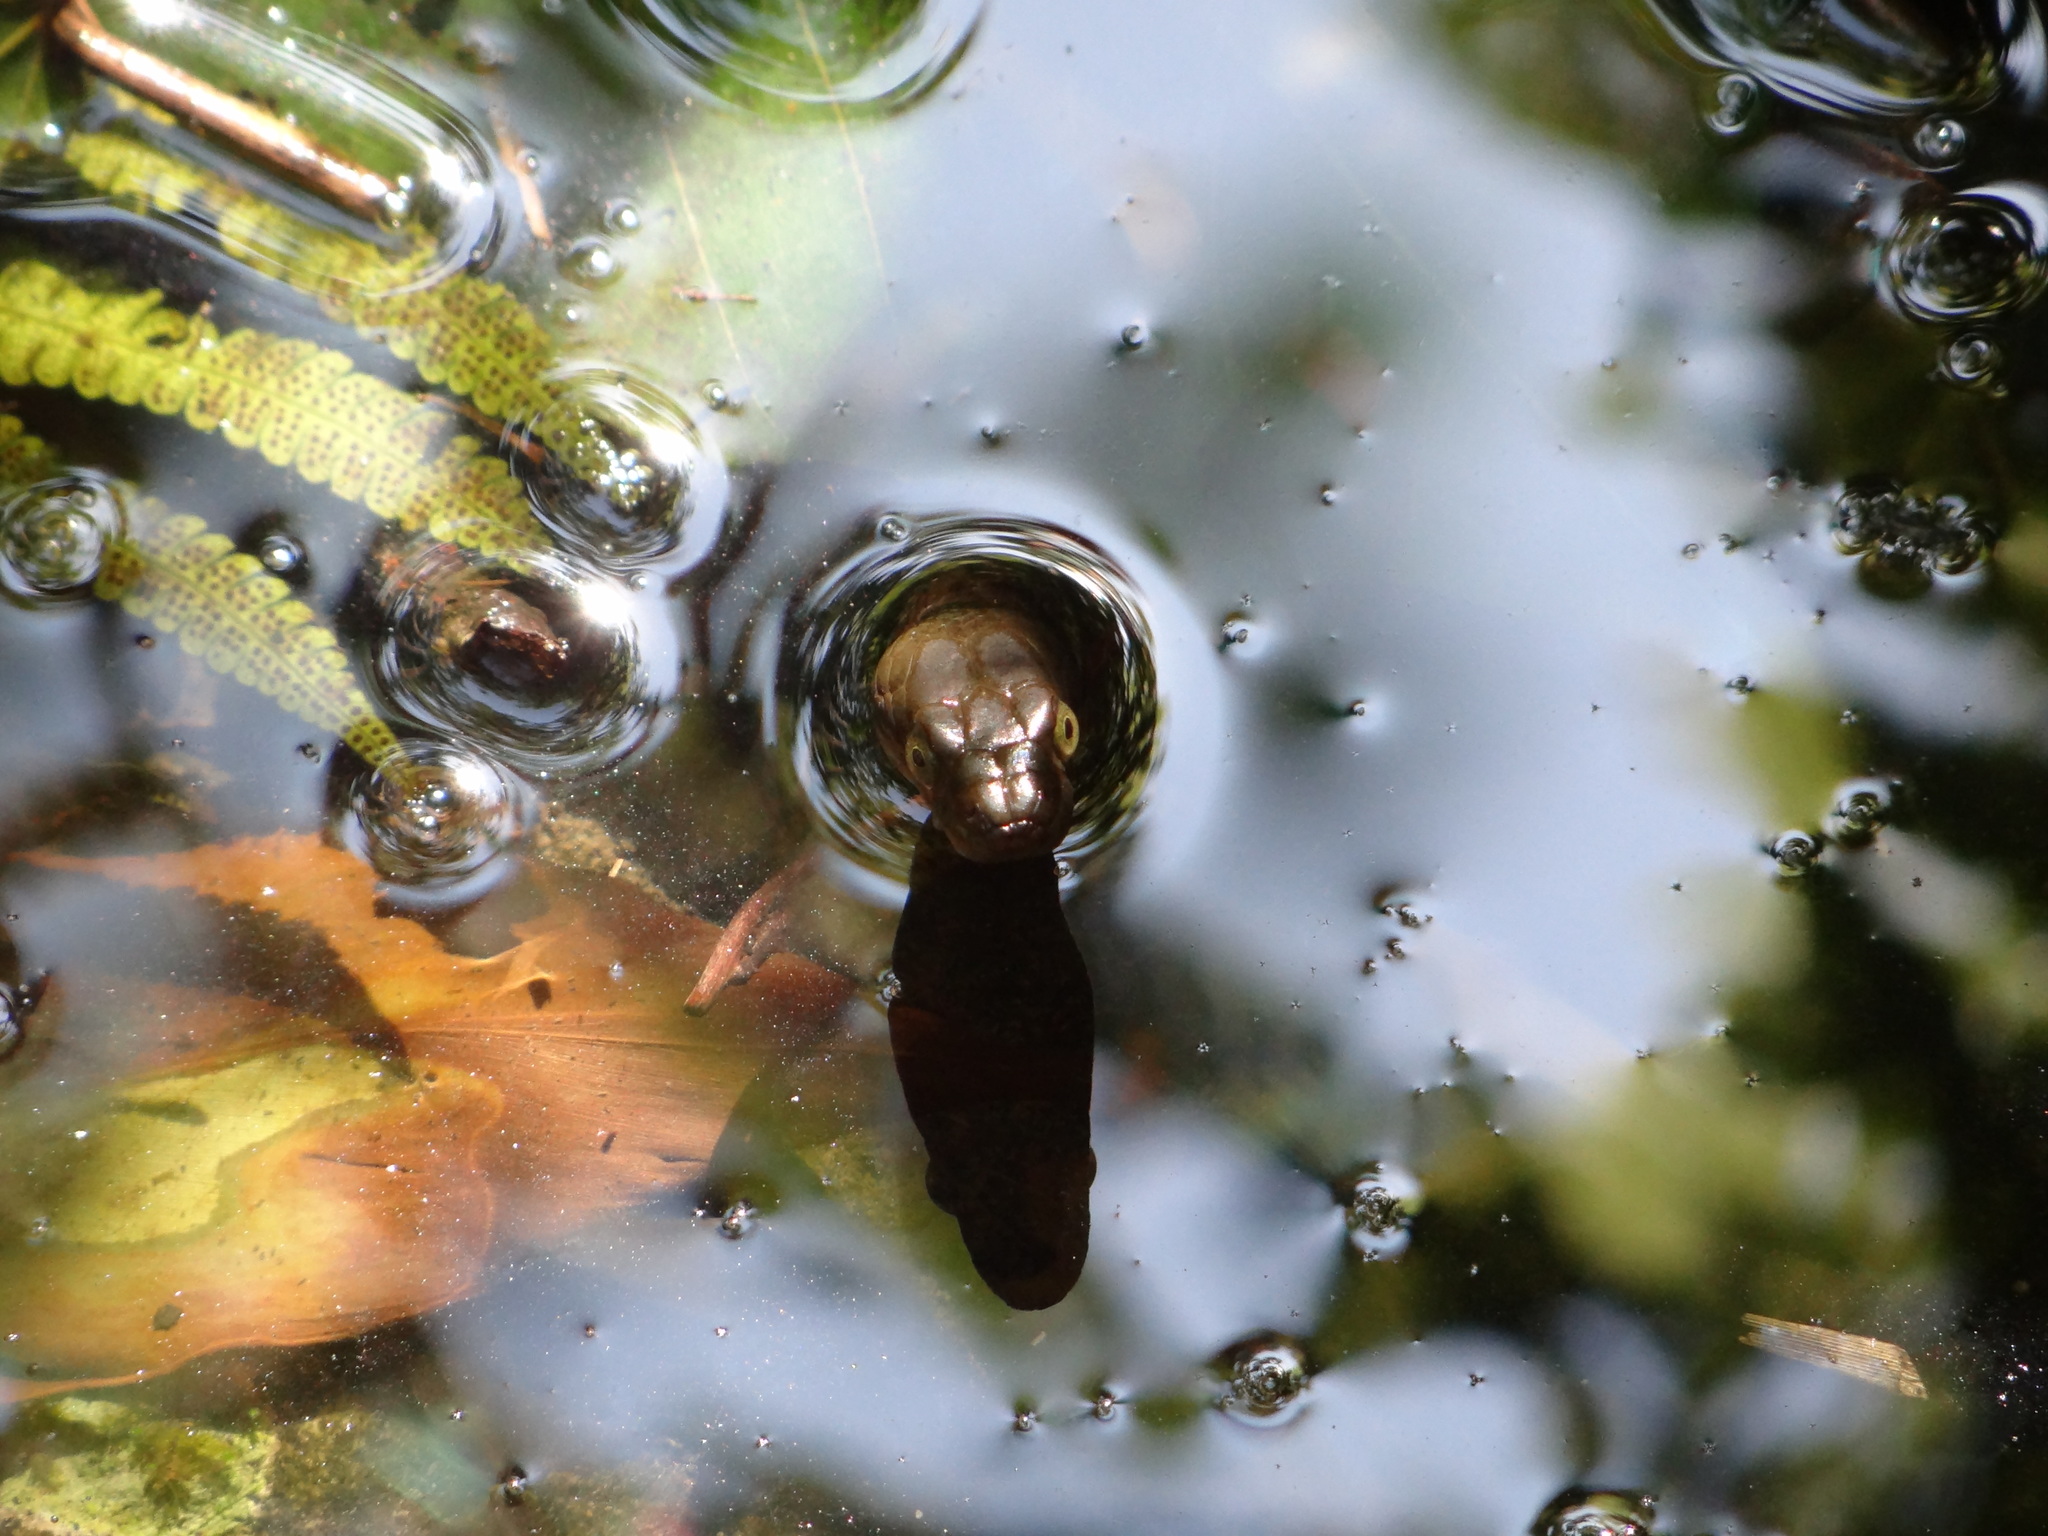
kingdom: Animalia
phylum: Chordata
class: Squamata
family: Colubridae
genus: Trimerodytes
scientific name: Trimerodytes percarinatus
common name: Eastern water snake
